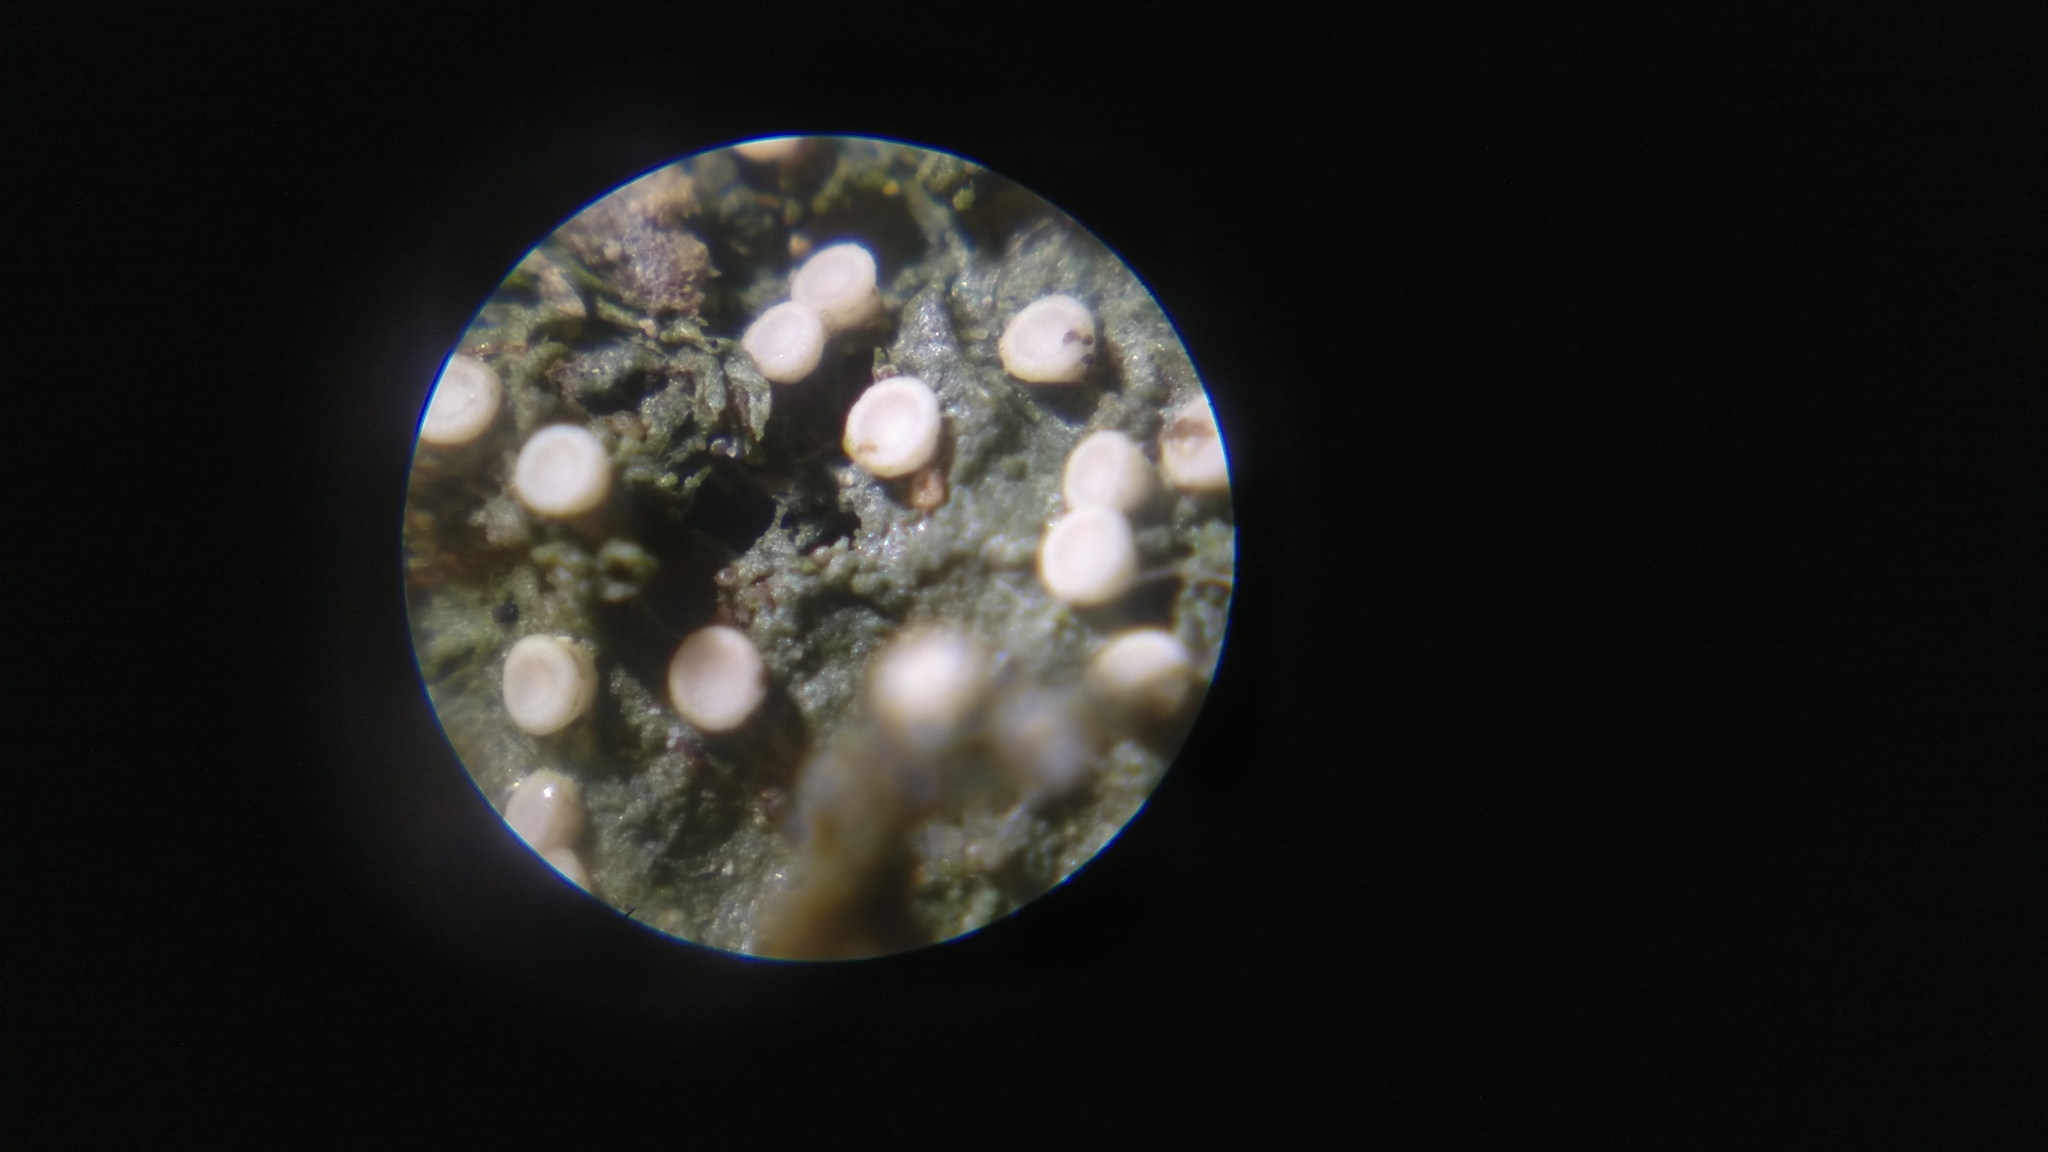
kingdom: Fungi
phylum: Ascomycota
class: Lecanoromycetes
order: Ostropales
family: Coenogoniaceae
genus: Coenogonium
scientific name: Coenogonium pineti
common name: Pink dimple lichen
